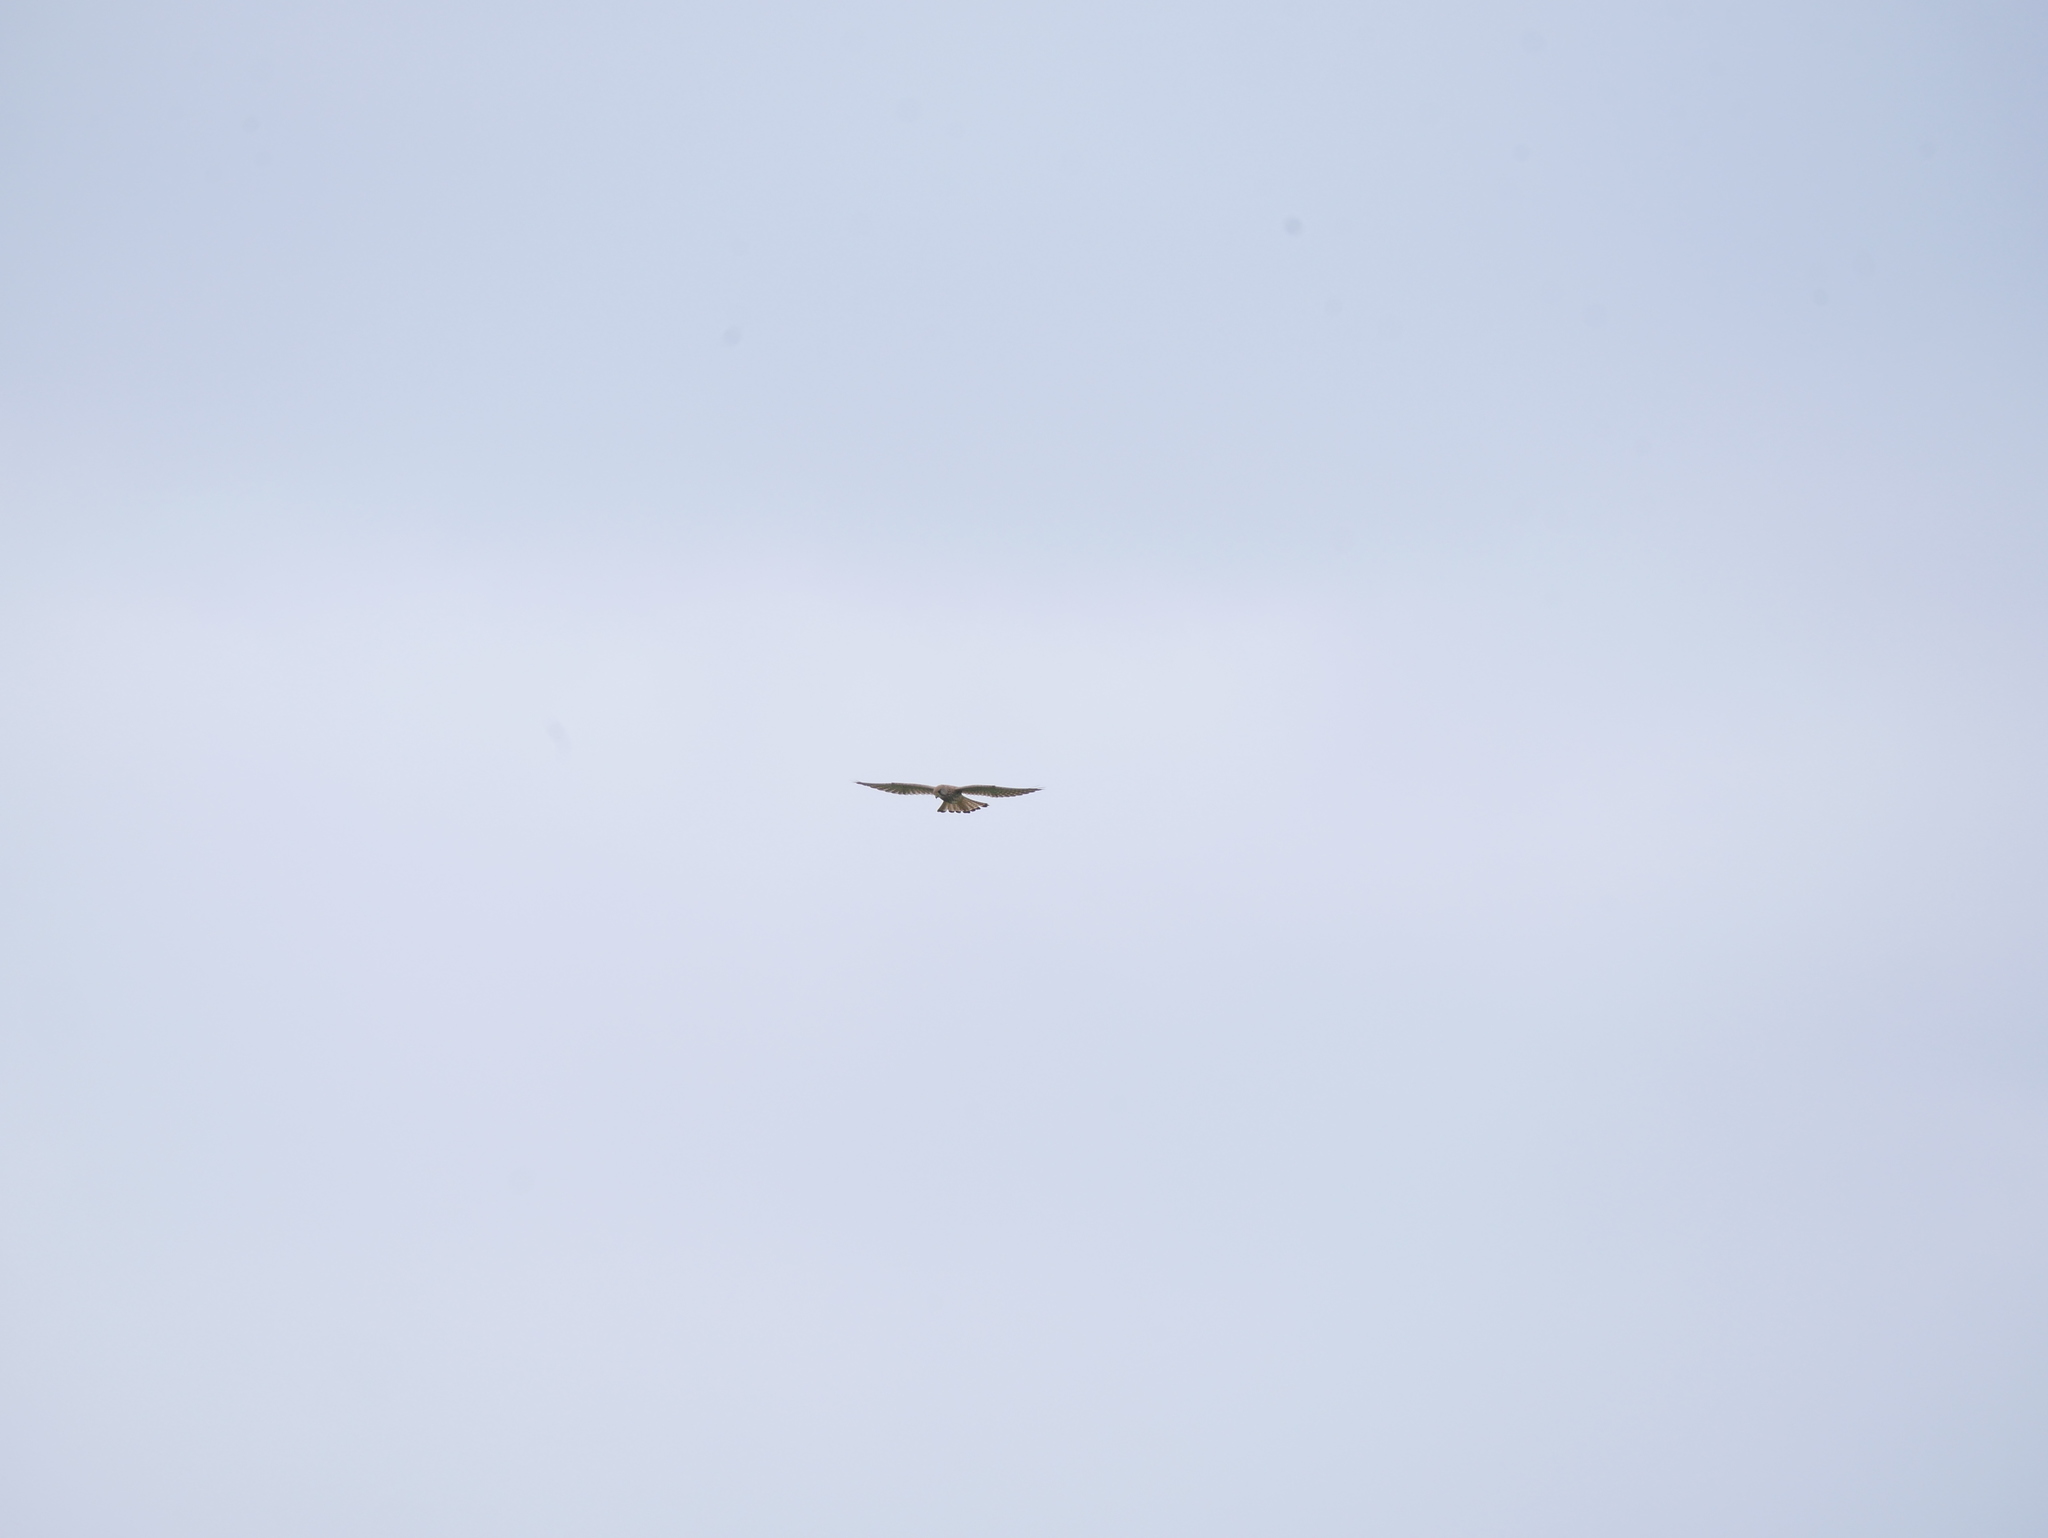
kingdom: Animalia
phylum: Chordata
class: Aves
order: Falconiformes
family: Falconidae
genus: Falco
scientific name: Falco tinnunculus
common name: Common kestrel
